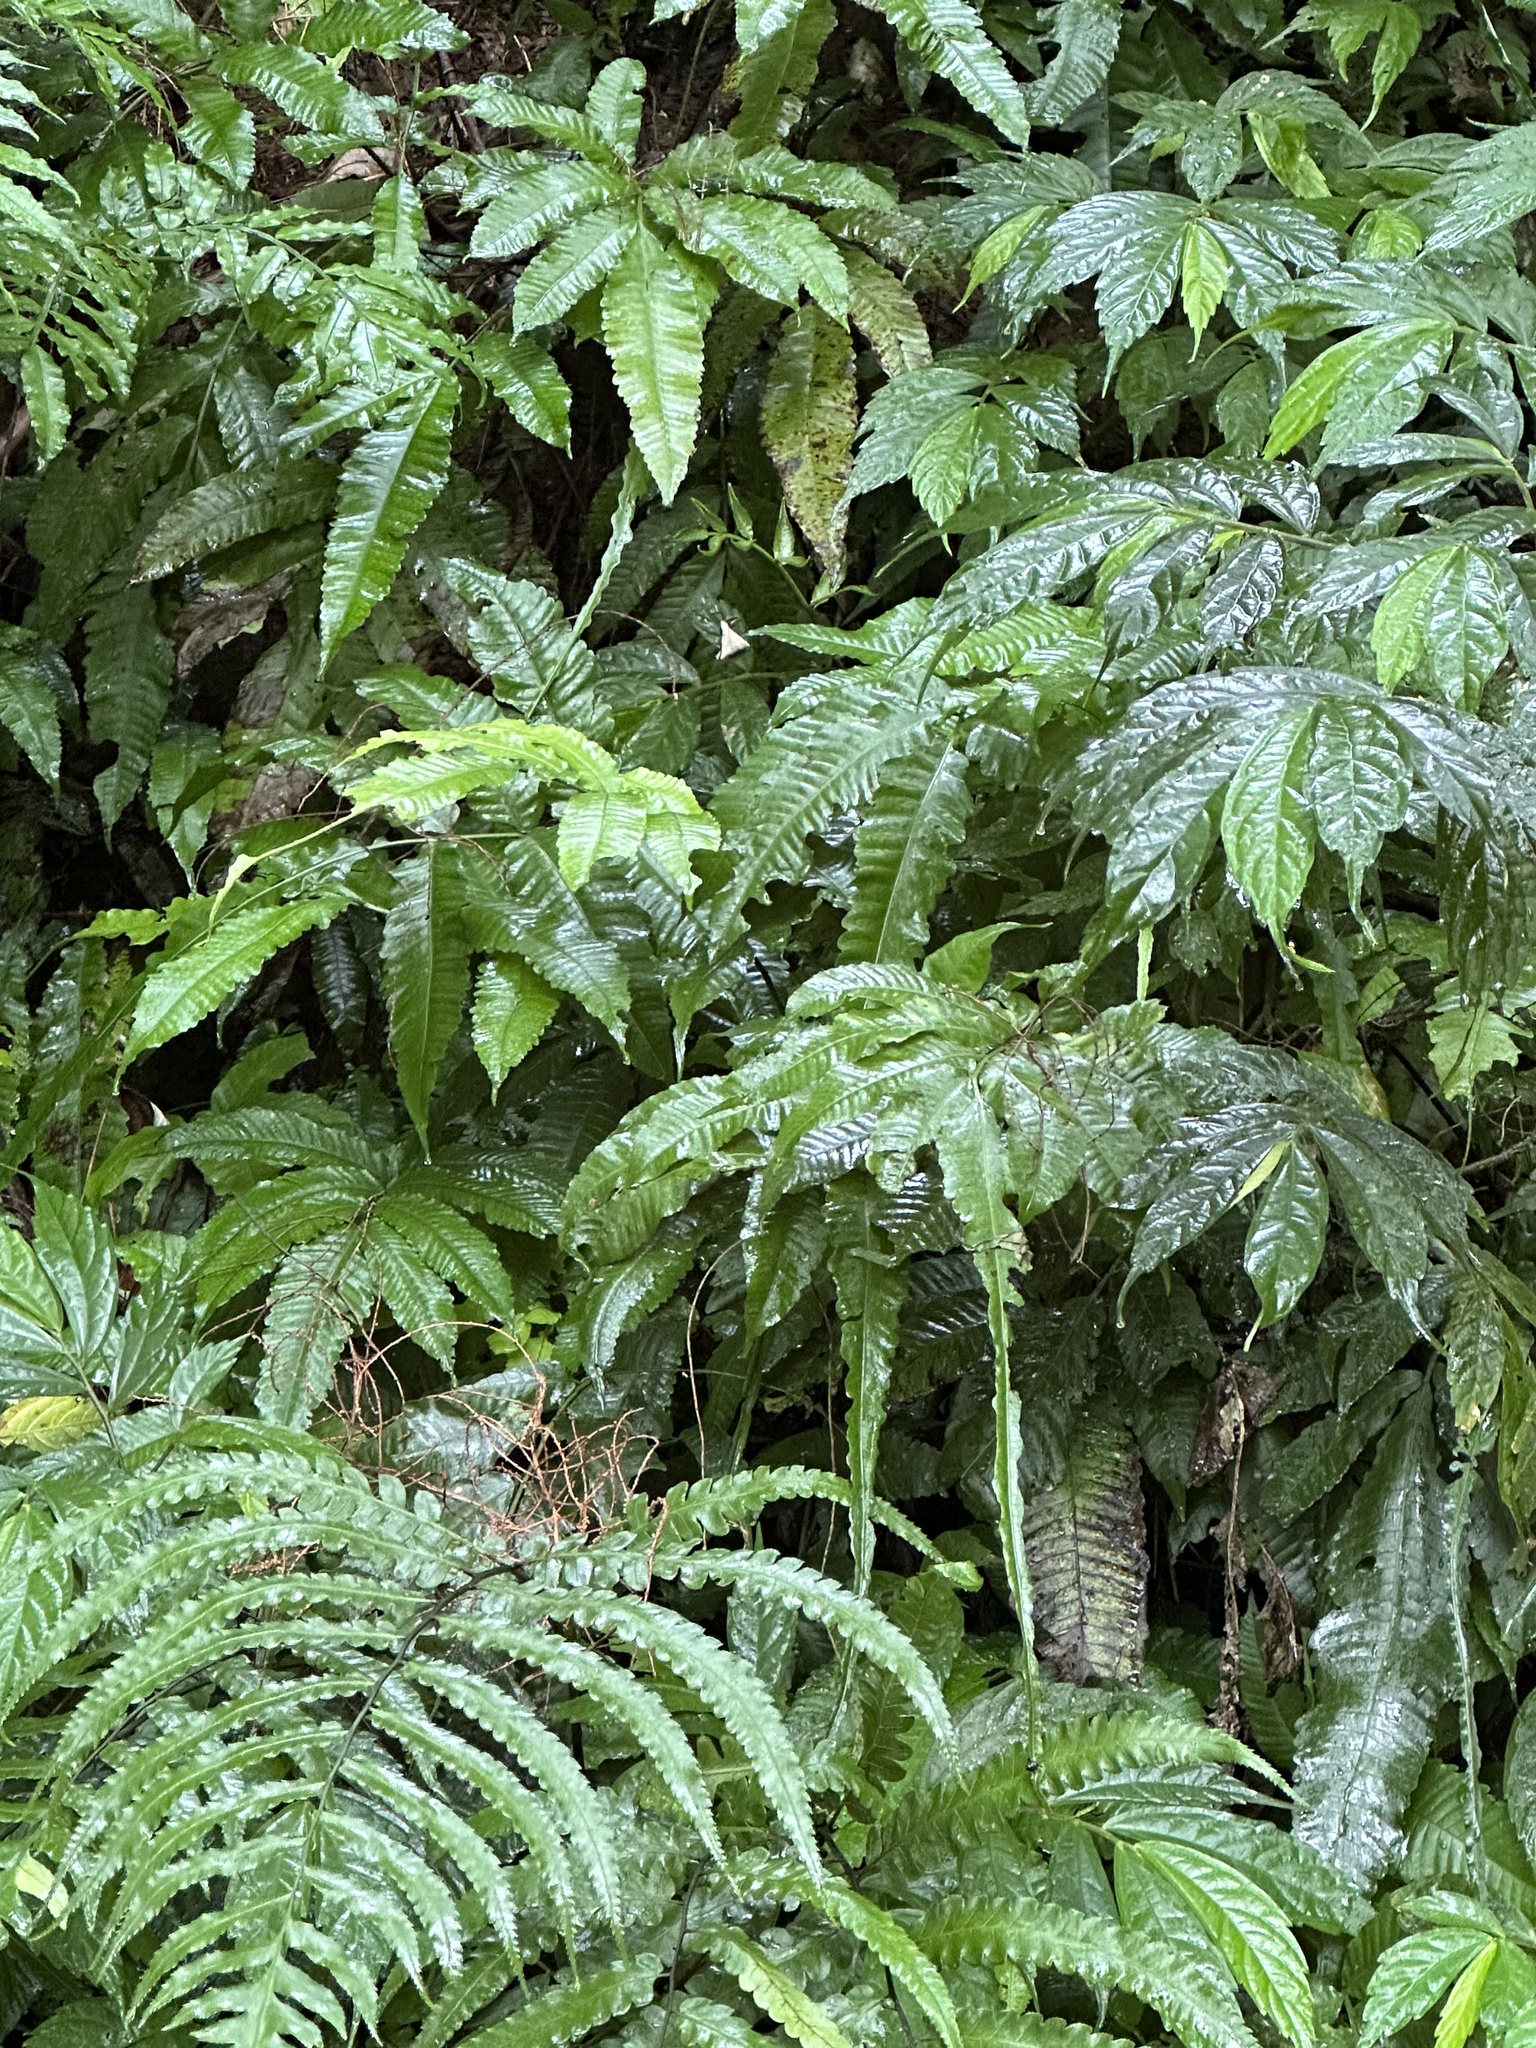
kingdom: Plantae
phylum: Tracheophyta
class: Polypodiopsida
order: Polypodiales
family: Dryopteridaceae
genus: Bolbitis
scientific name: Bolbitis heteroclita
